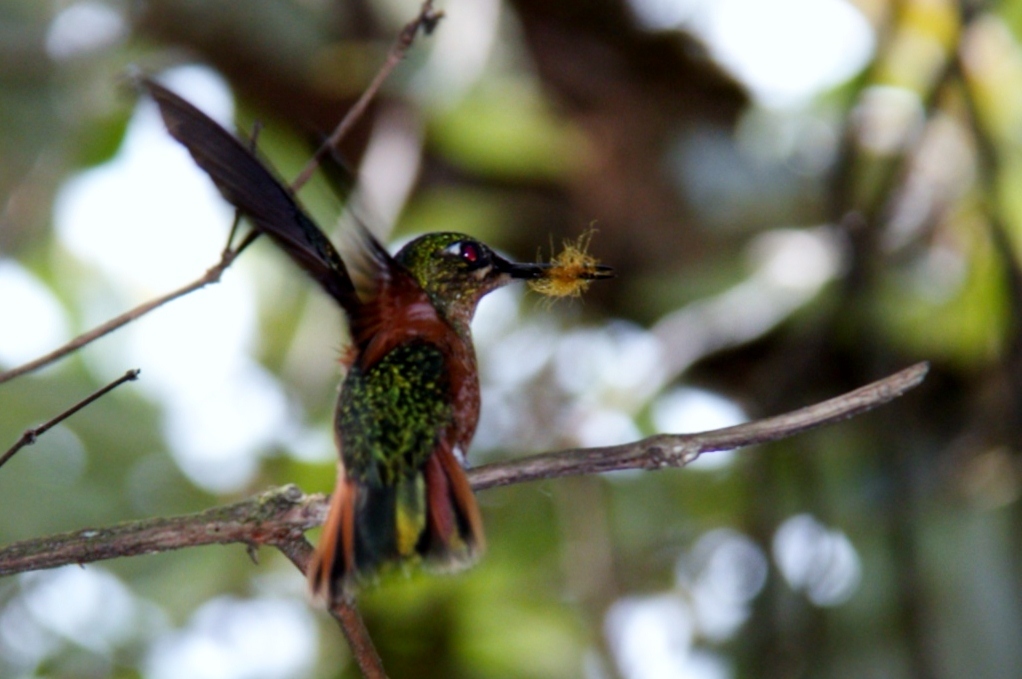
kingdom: Animalia
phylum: Chordata
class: Aves
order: Apodiformes
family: Trochilidae
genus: Clytolaema
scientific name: Clytolaema rubricauda
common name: Brazilian ruby
